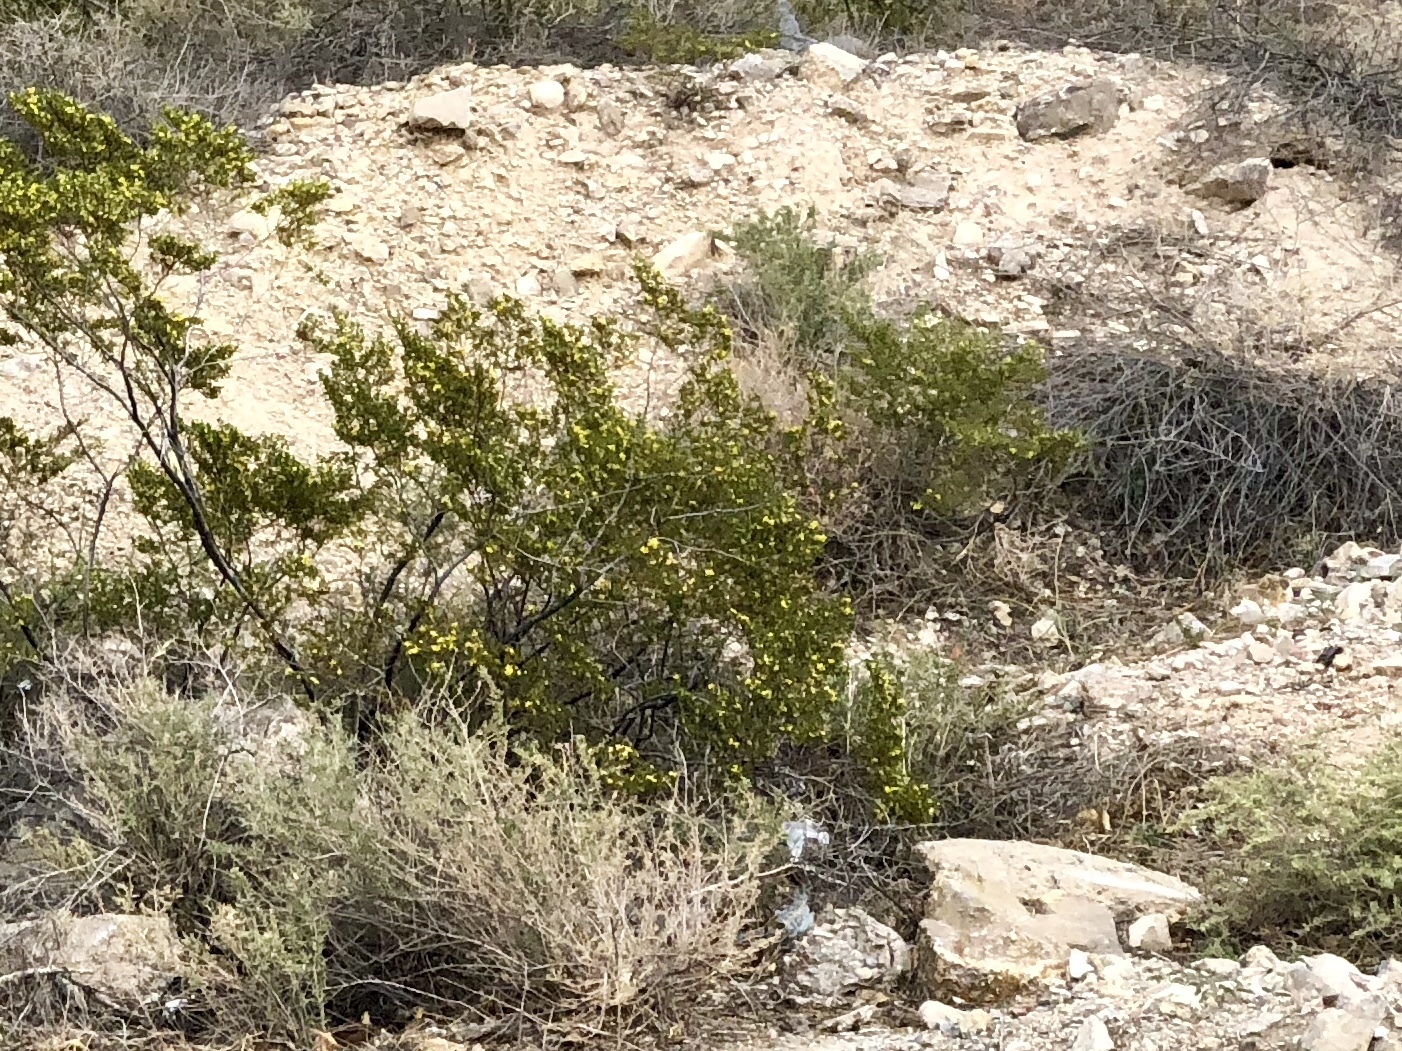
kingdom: Plantae
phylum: Tracheophyta
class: Magnoliopsida
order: Zygophyllales
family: Zygophyllaceae
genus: Larrea
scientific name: Larrea tridentata
